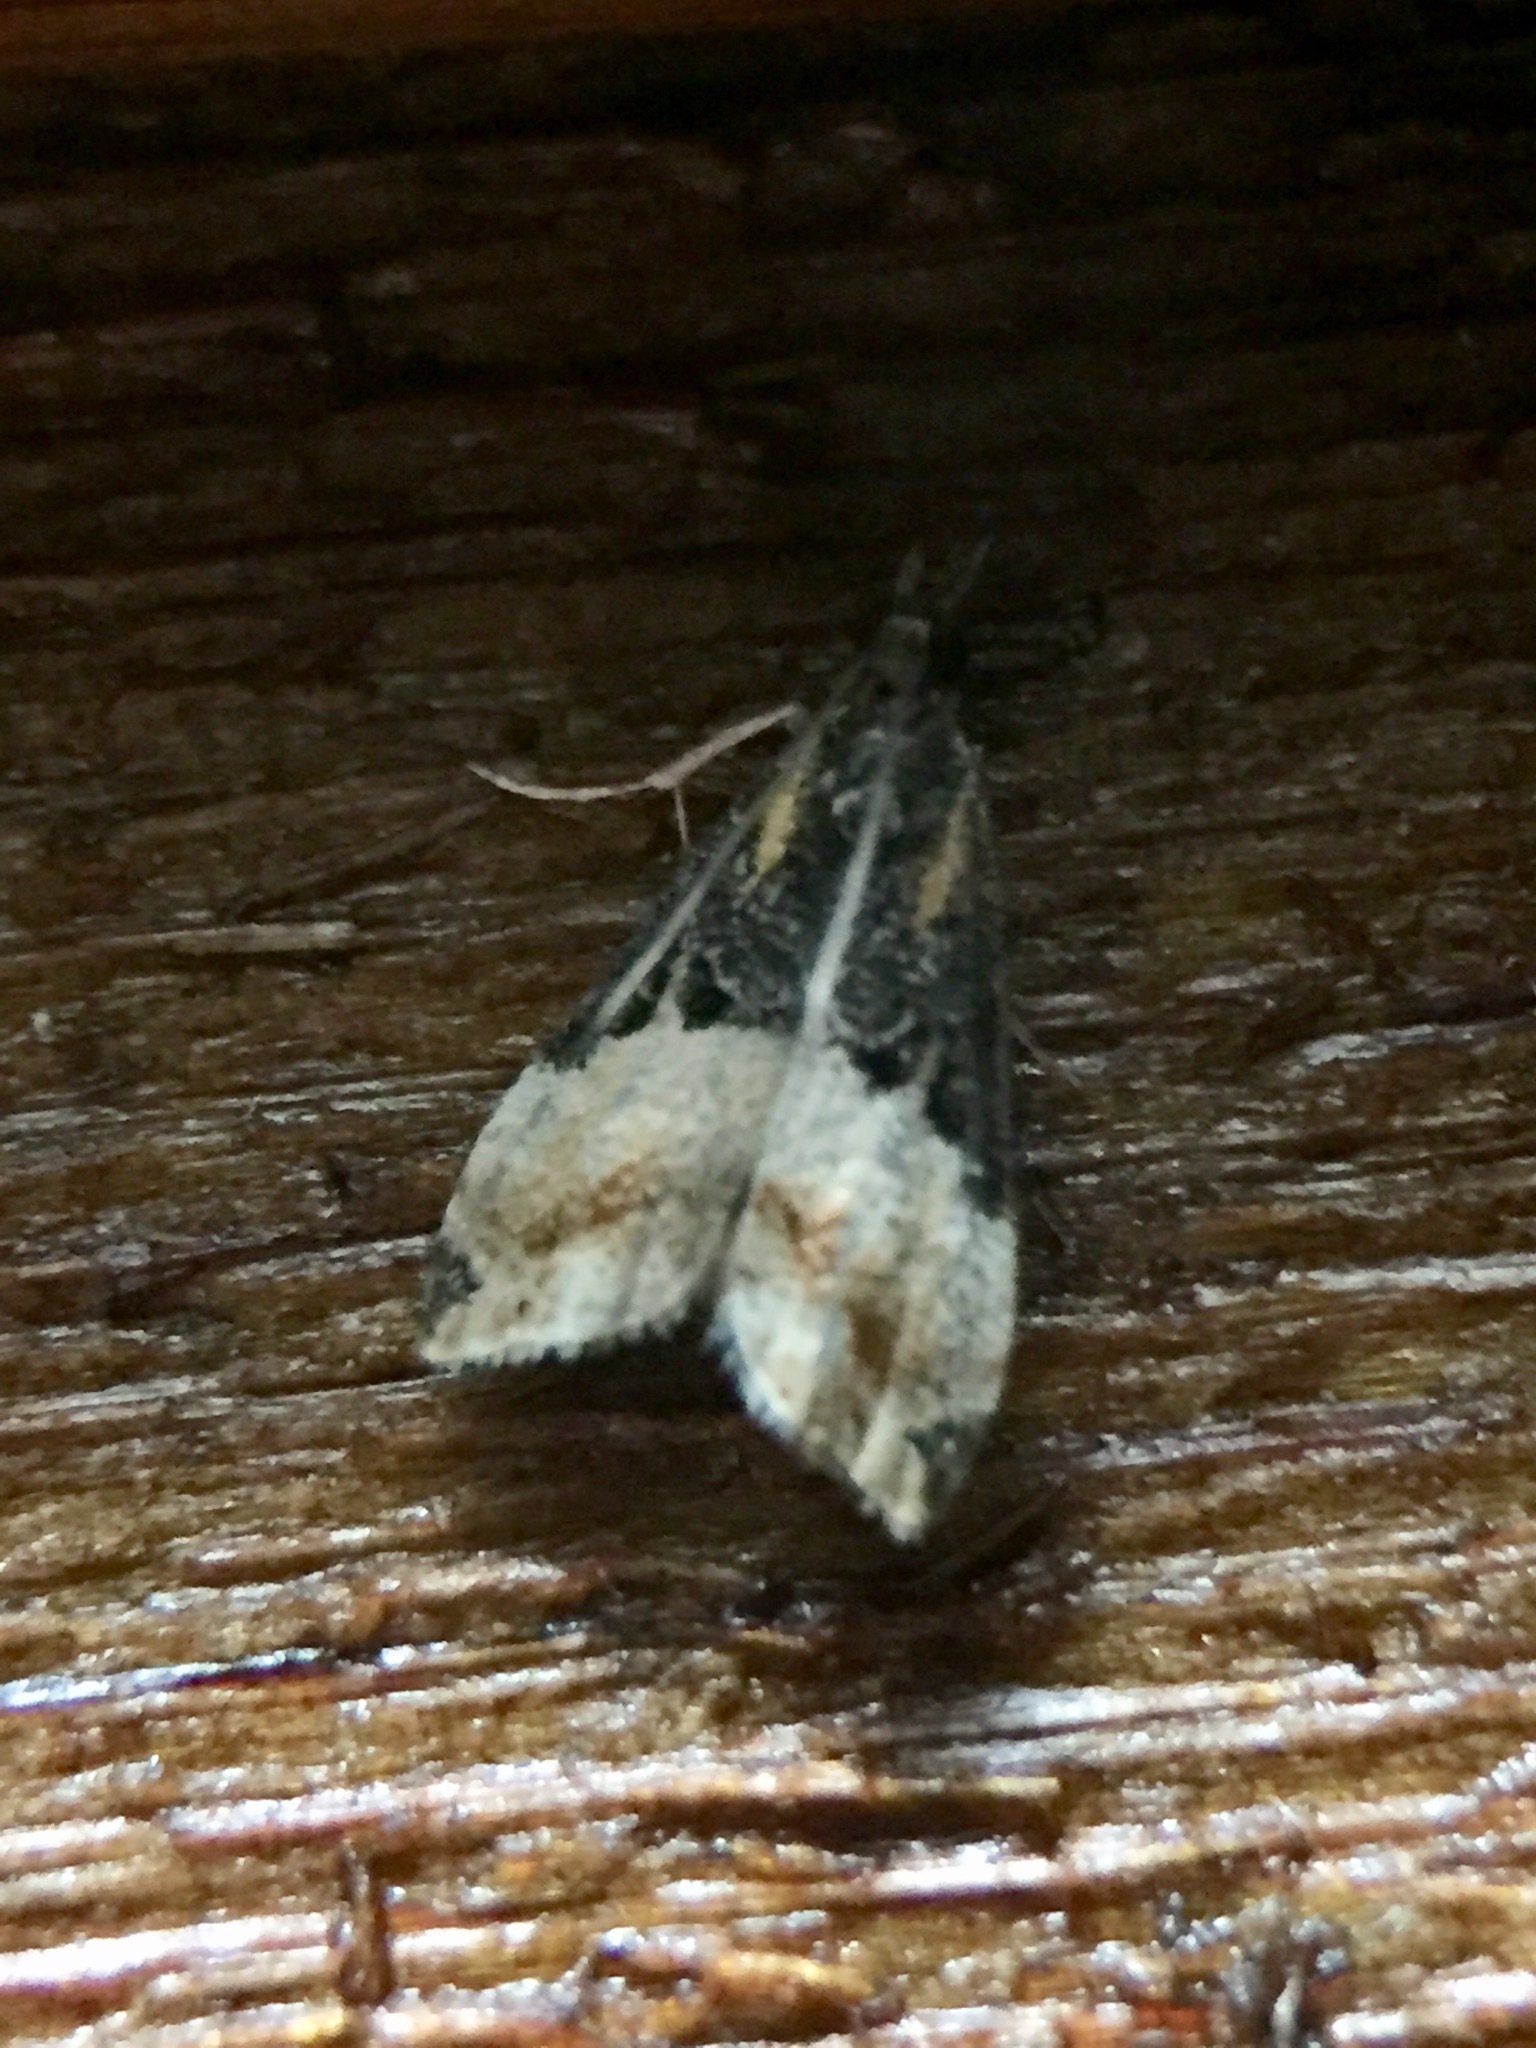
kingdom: Animalia
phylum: Arthropoda
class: Insecta
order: Lepidoptera
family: Crambidae
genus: Eudonia
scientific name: Eudonia chlamydota
